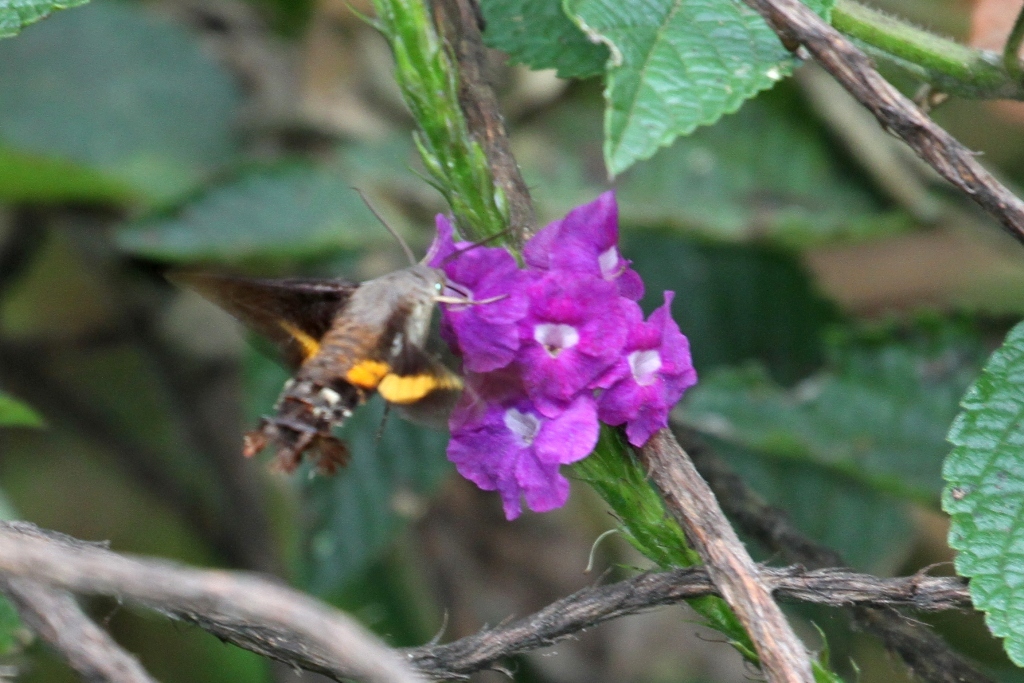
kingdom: Animalia
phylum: Arthropoda
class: Insecta
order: Lepidoptera
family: Sphingidae
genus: Aellopos
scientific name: Aellopos ceculus
